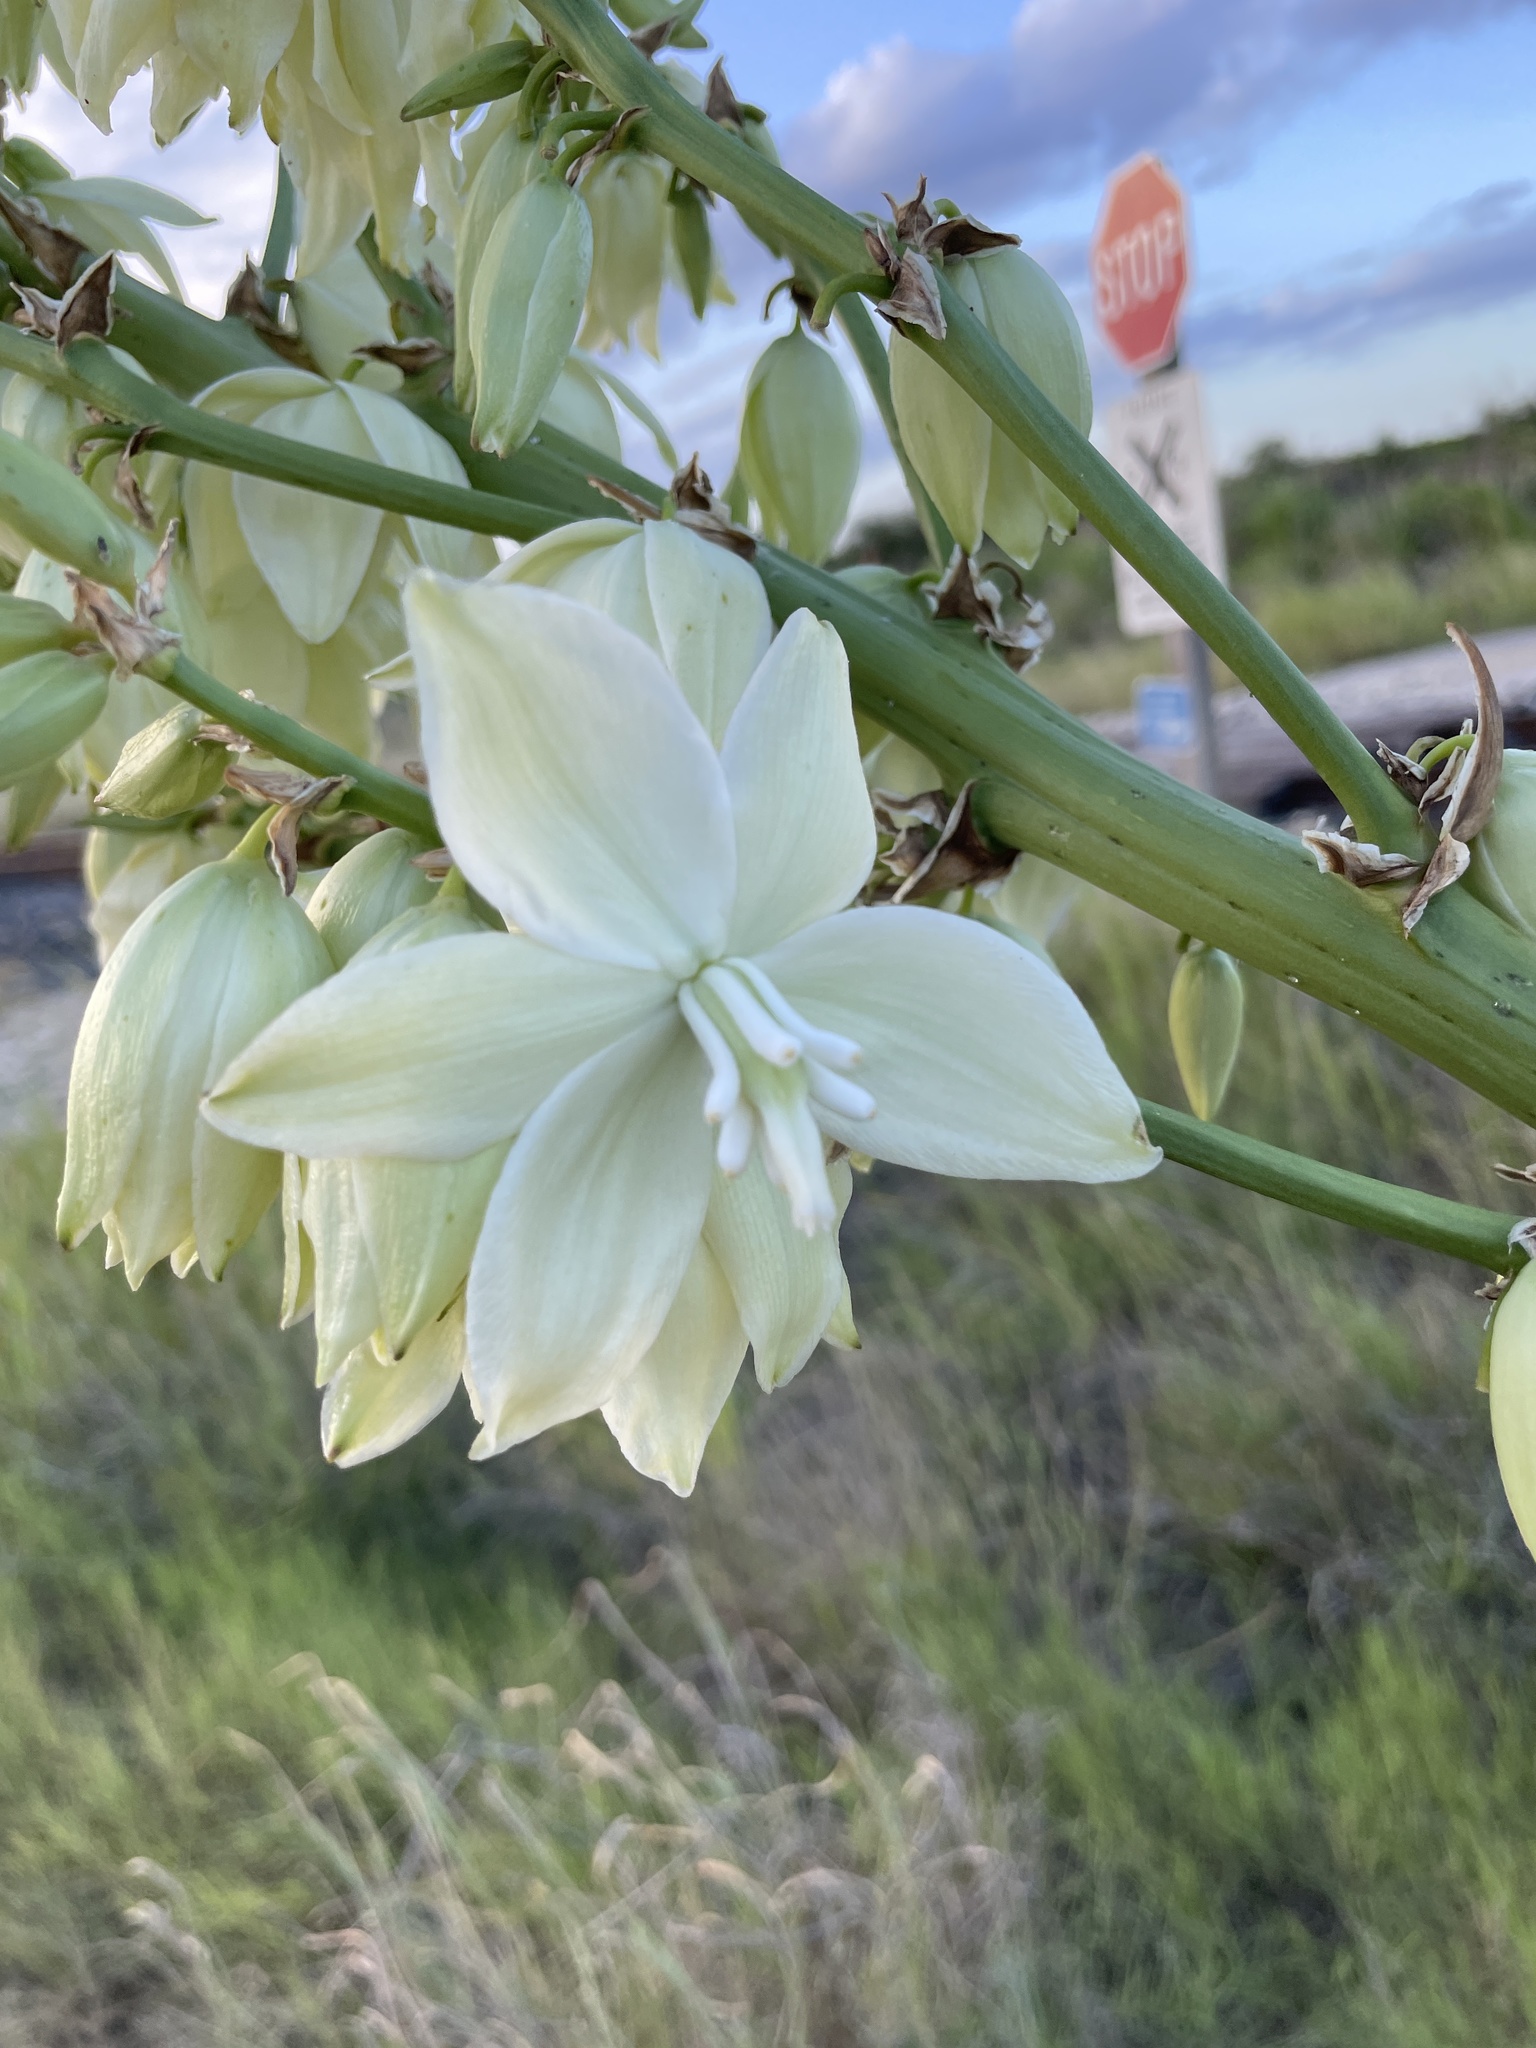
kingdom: Plantae
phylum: Tracheophyta
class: Liliopsida
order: Asparagales
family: Asparagaceae
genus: Yucca
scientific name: Yucca constricta
